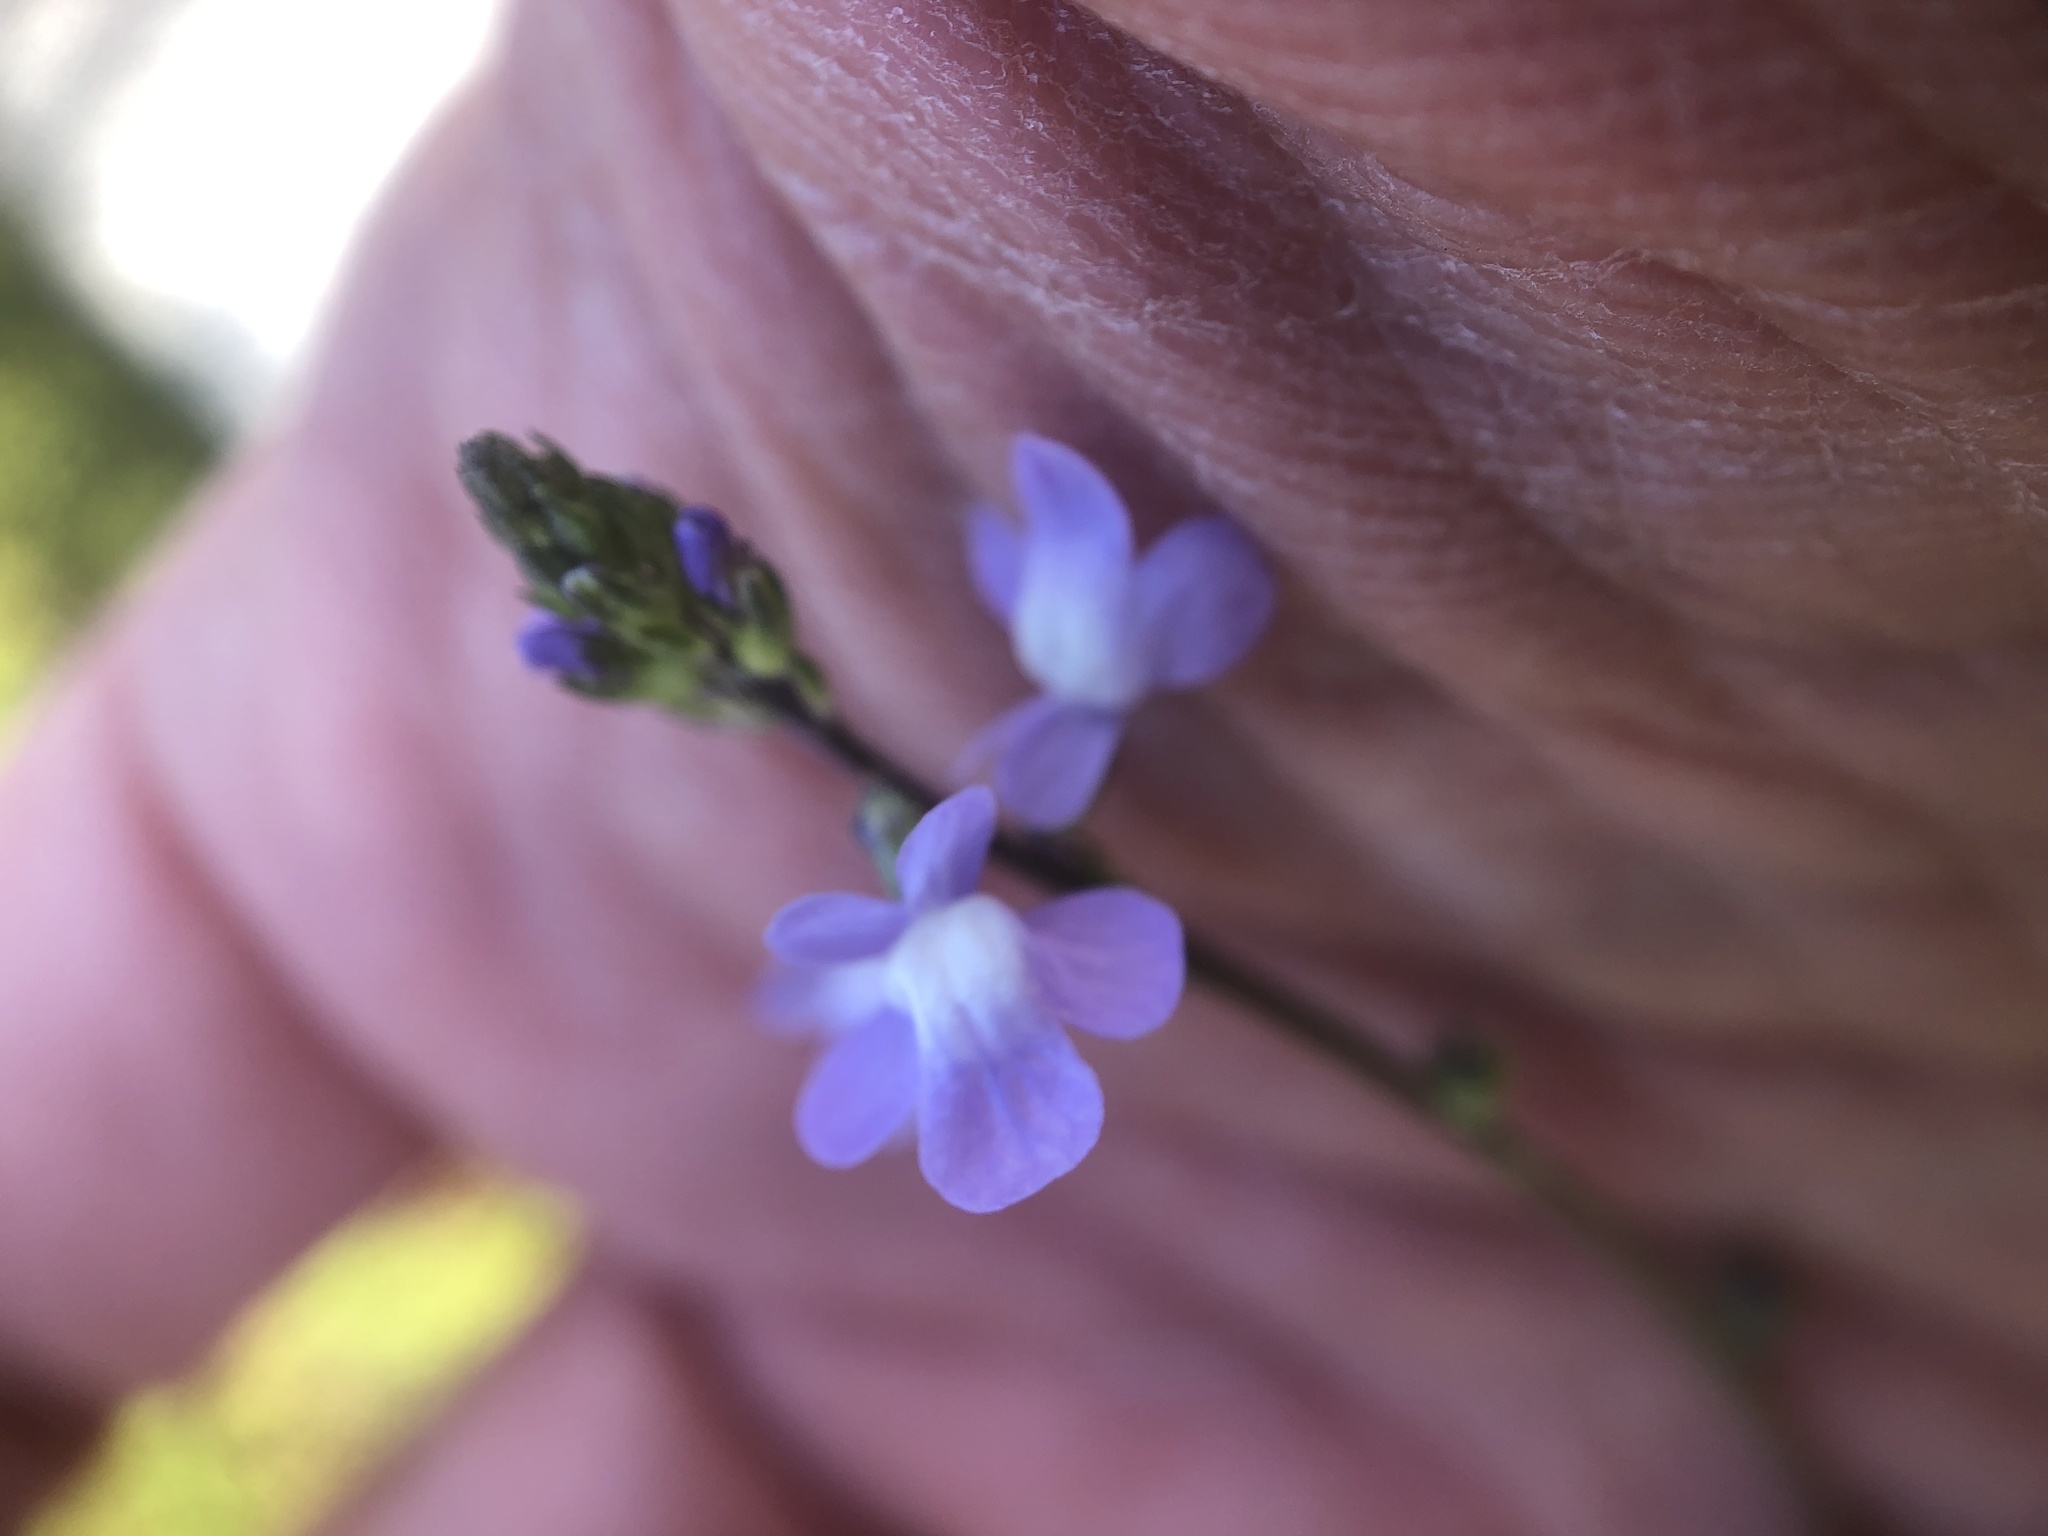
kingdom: Plantae
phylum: Tracheophyta
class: Magnoliopsida
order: Lamiales
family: Plantaginaceae
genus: Nuttallanthus
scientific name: Nuttallanthus canadensis
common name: Blue toadflax
